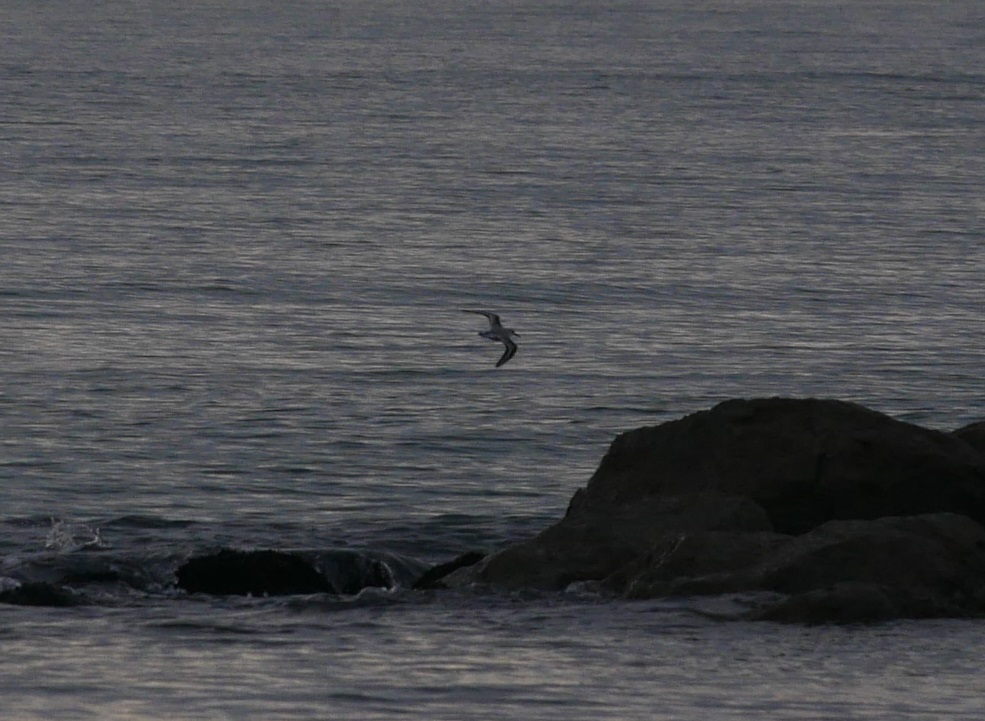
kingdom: Animalia
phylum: Chordata
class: Aves
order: Charadriiformes
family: Scolopacidae
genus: Calidris
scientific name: Calidris alba
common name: Sanderling
